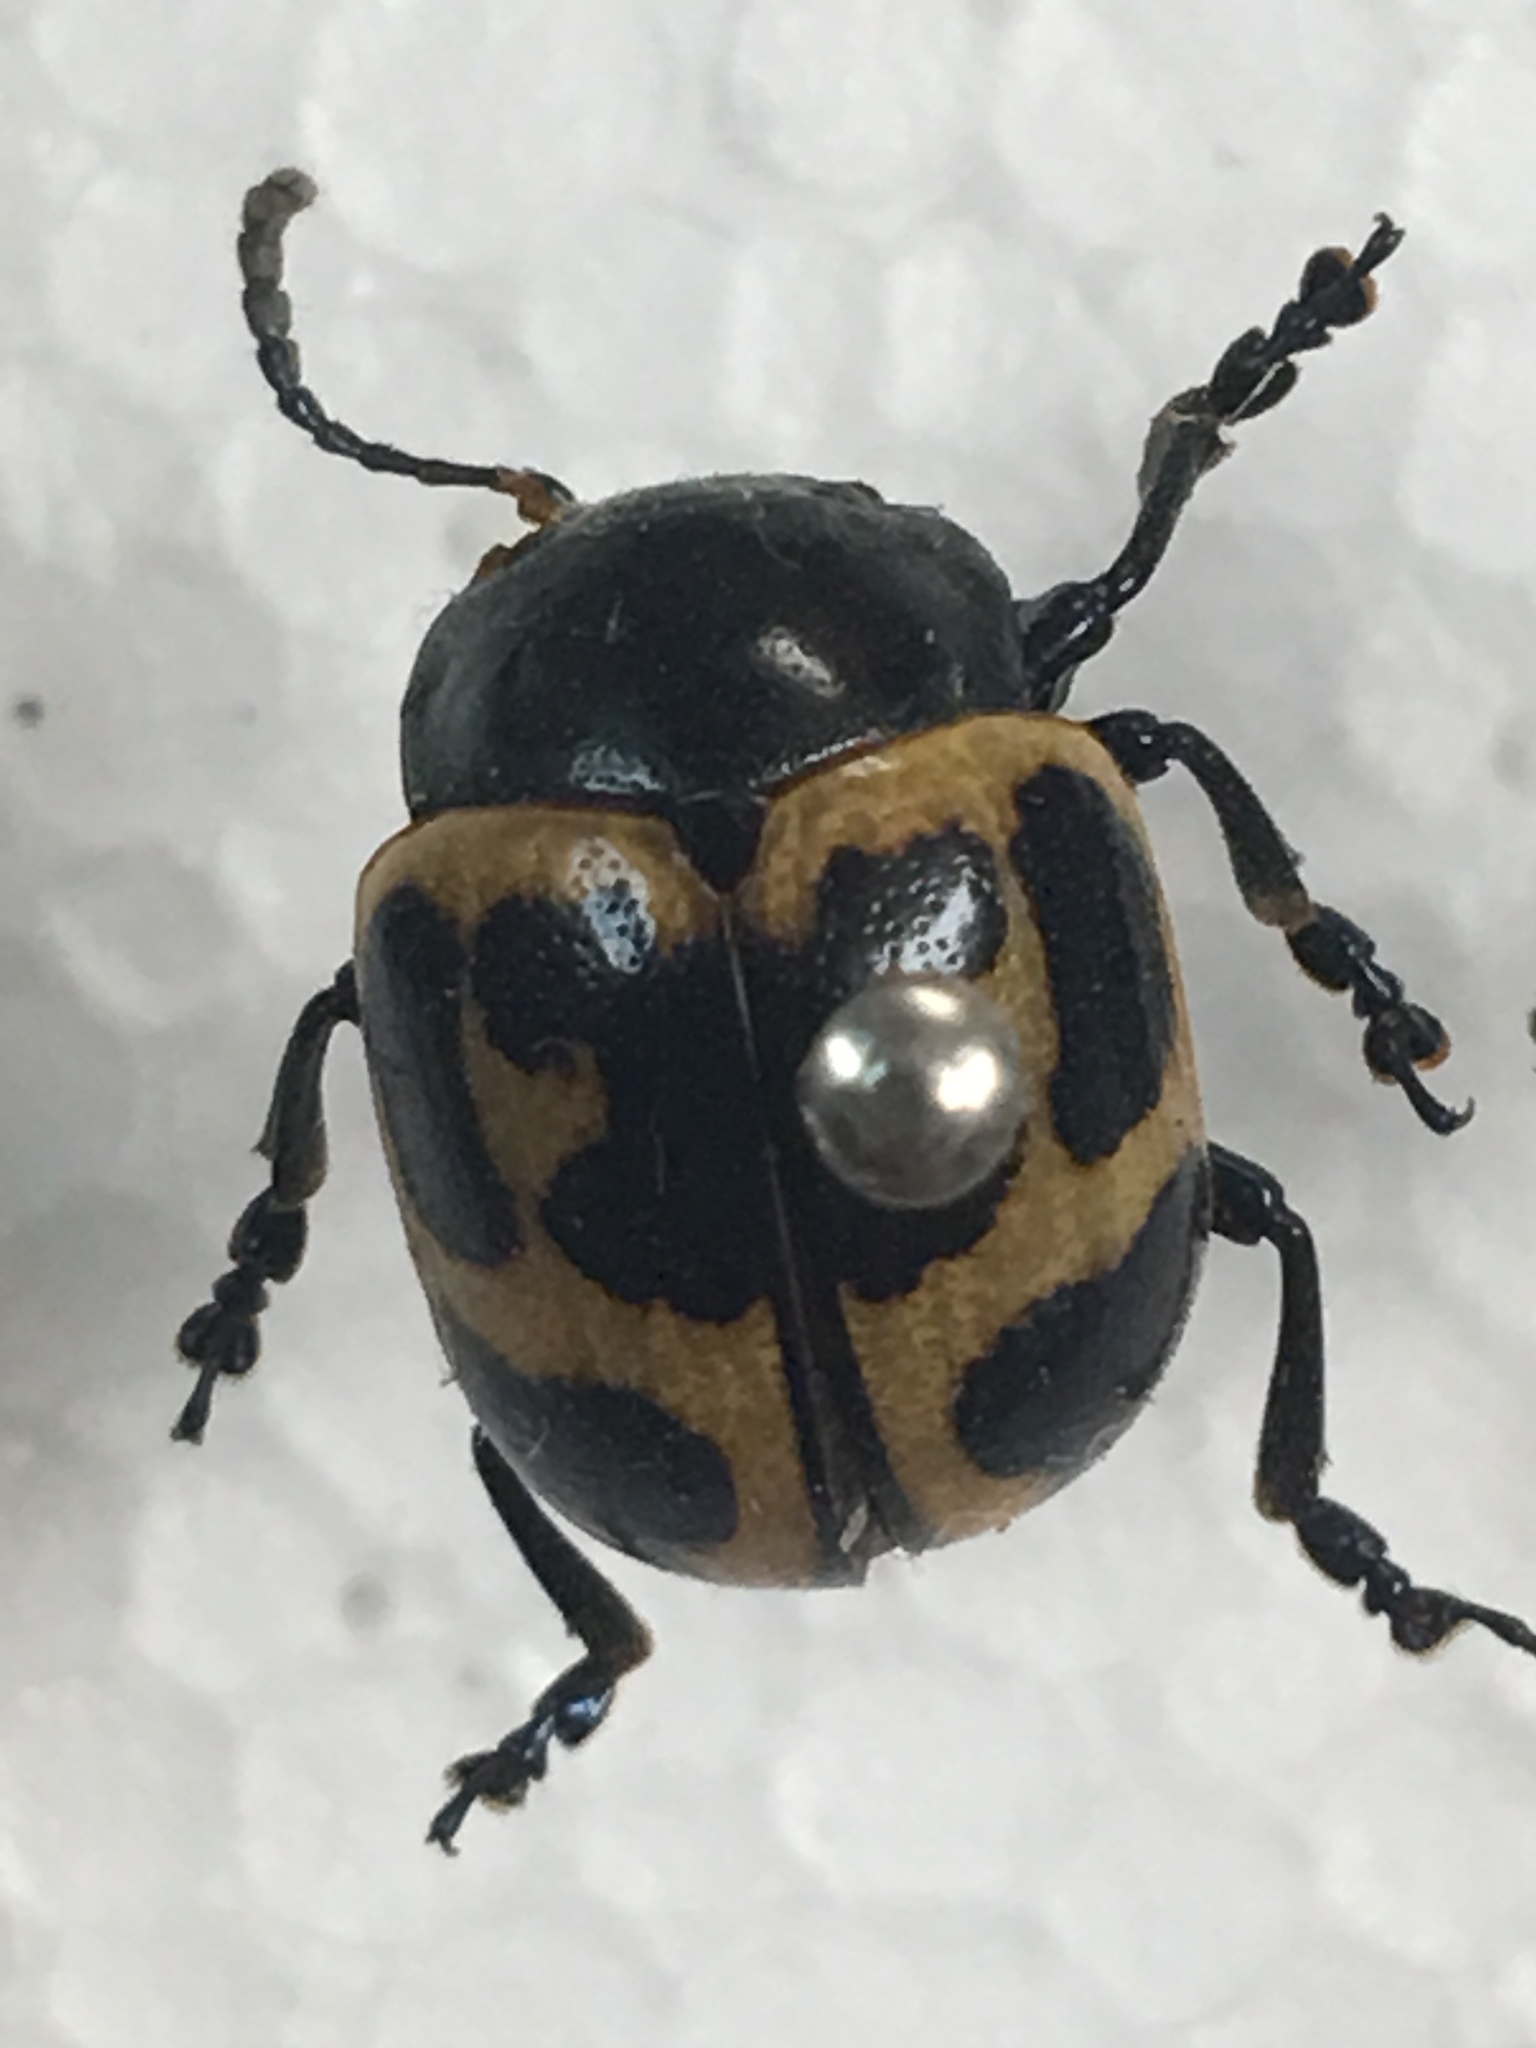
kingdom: Animalia
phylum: Arthropoda
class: Insecta
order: Coleoptera
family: Chrysomelidae
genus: Labidomera
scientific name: Labidomera clivicollis
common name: Swamp milkweed leaf beetle
